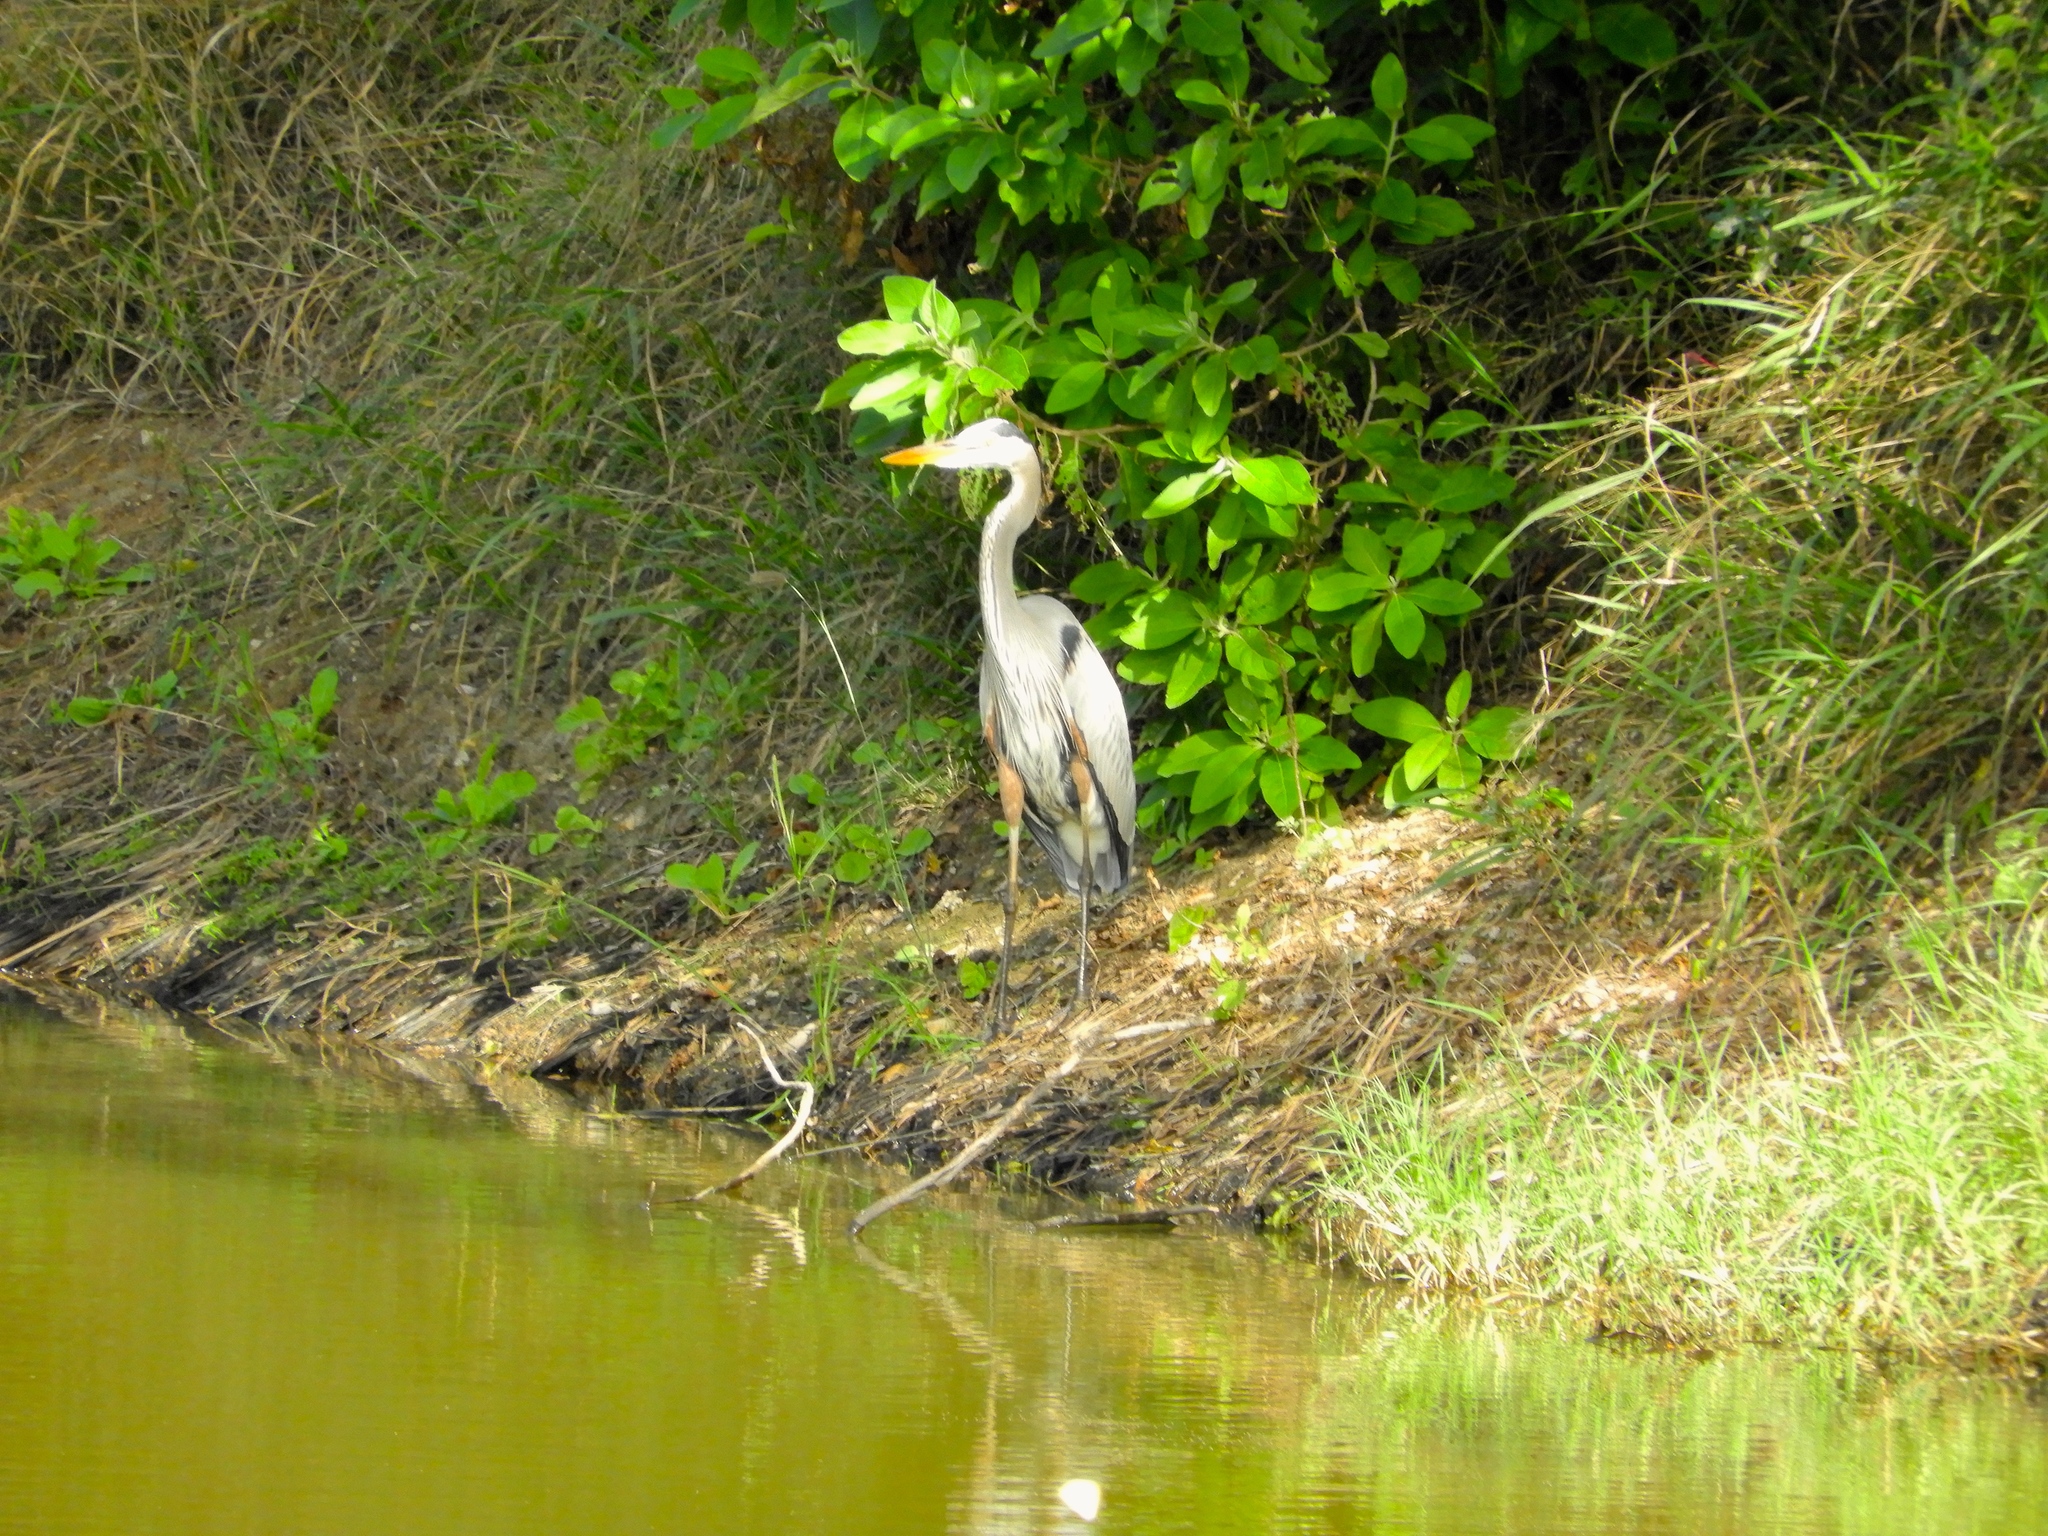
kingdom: Animalia
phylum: Chordata
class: Aves
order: Pelecaniformes
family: Ardeidae
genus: Ardea
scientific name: Ardea herodias
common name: Great blue heron
